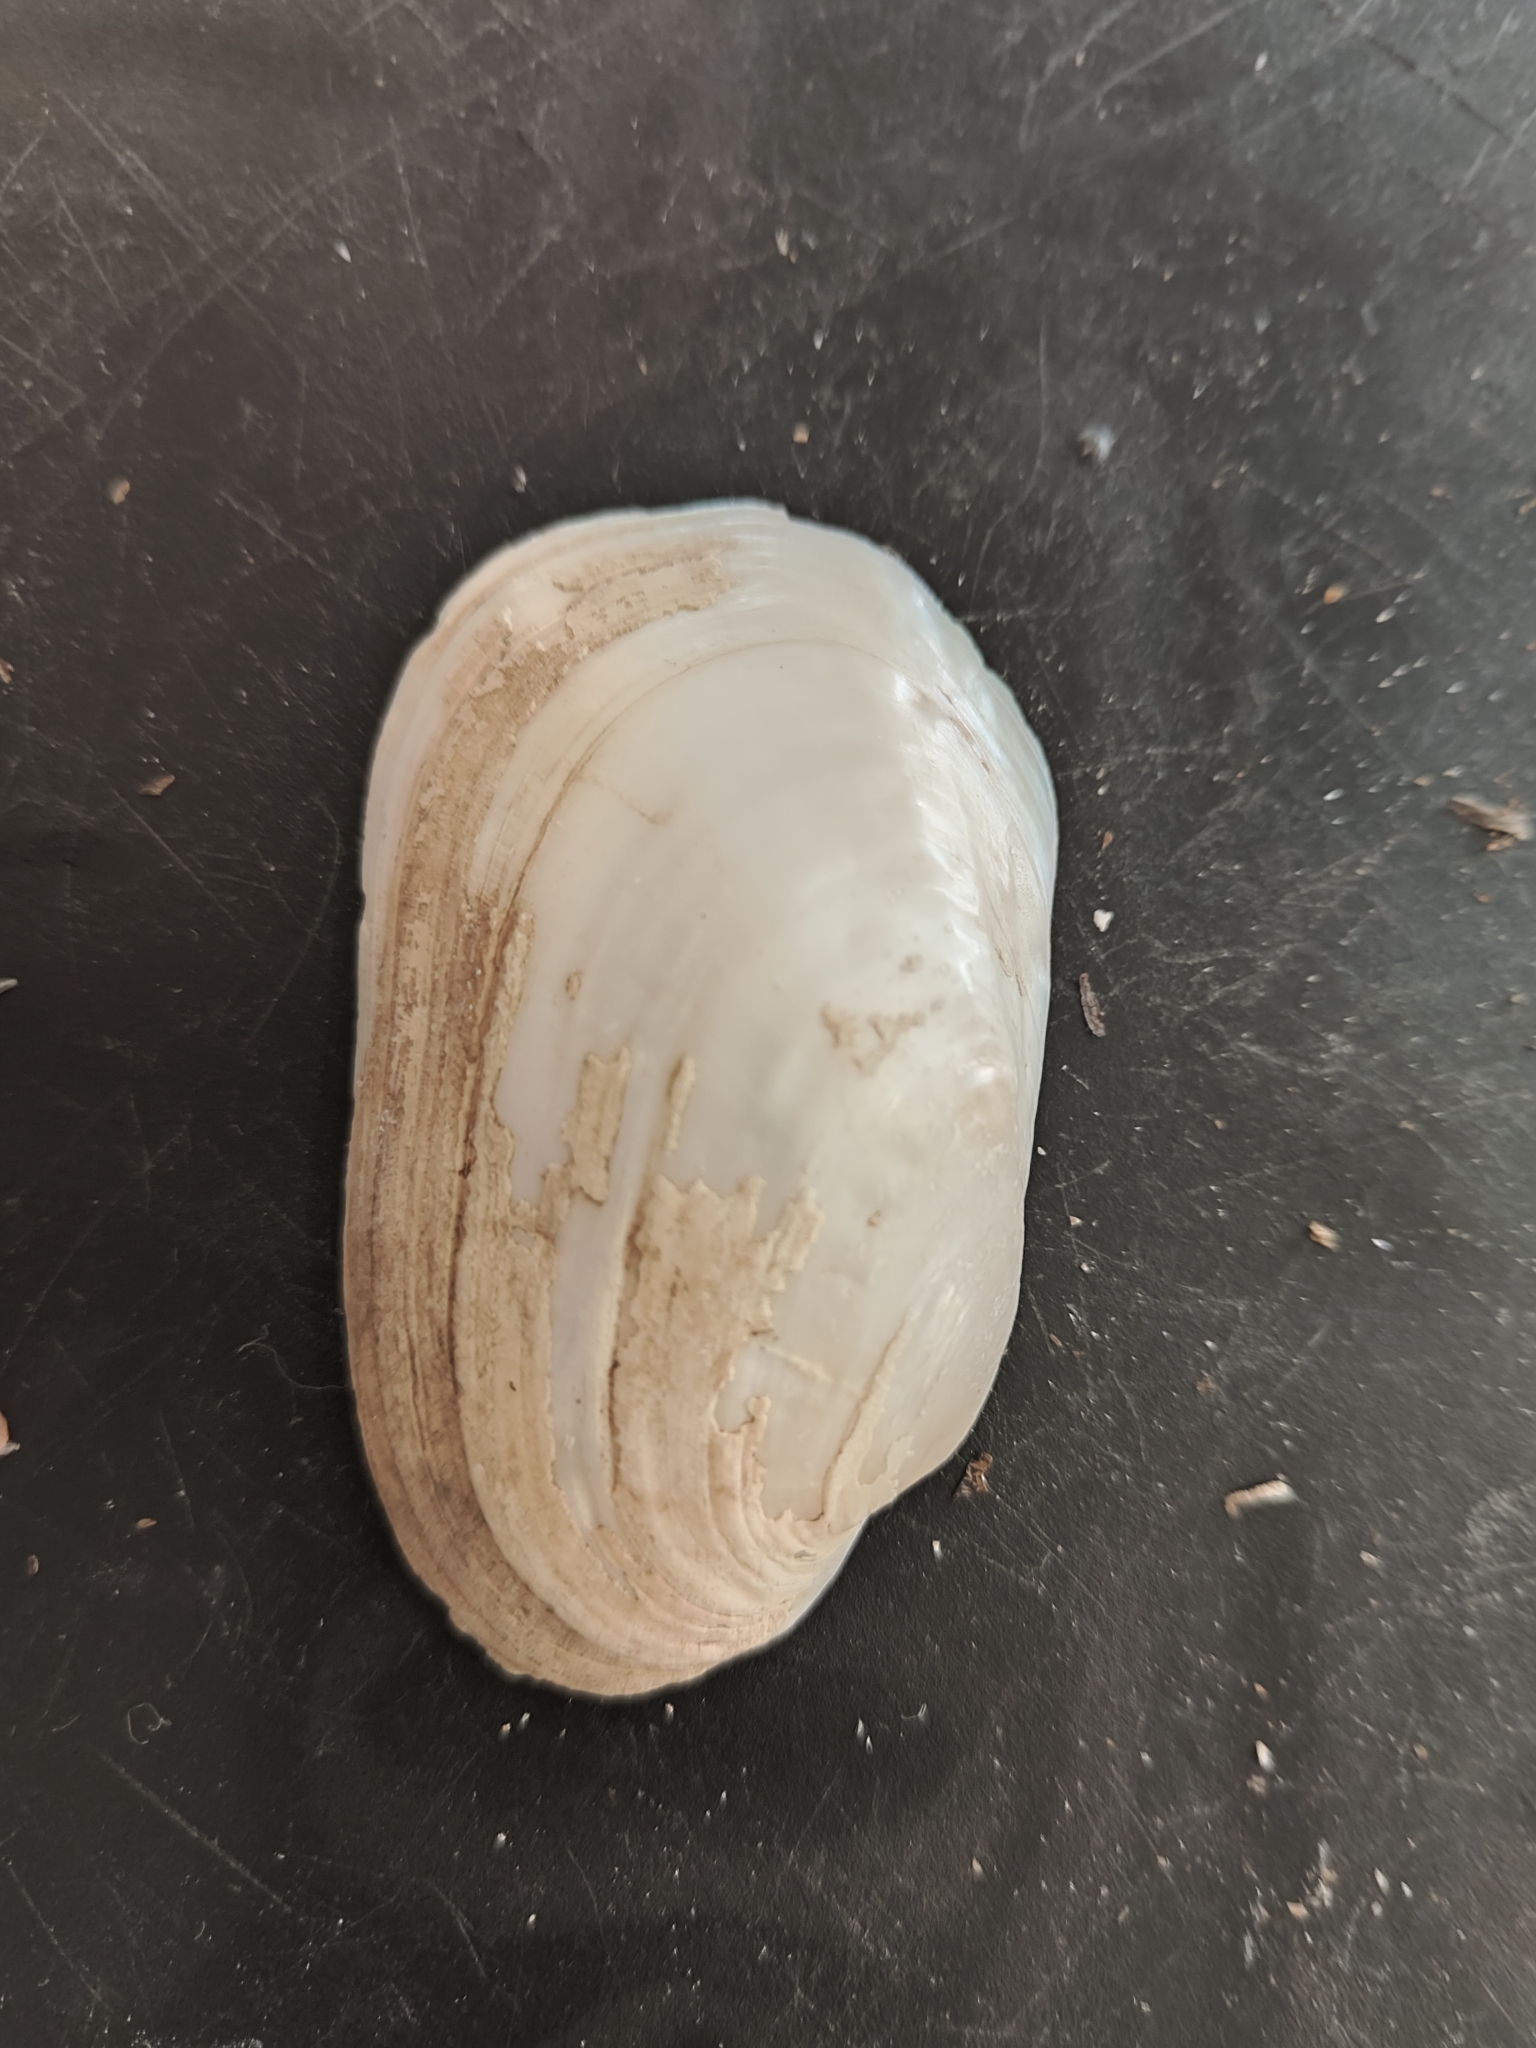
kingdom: Animalia
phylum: Mollusca
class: Bivalvia
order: Unionida
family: Unionidae
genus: Lampsilis
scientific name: Lampsilis siliquoidea
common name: Fatmucket
